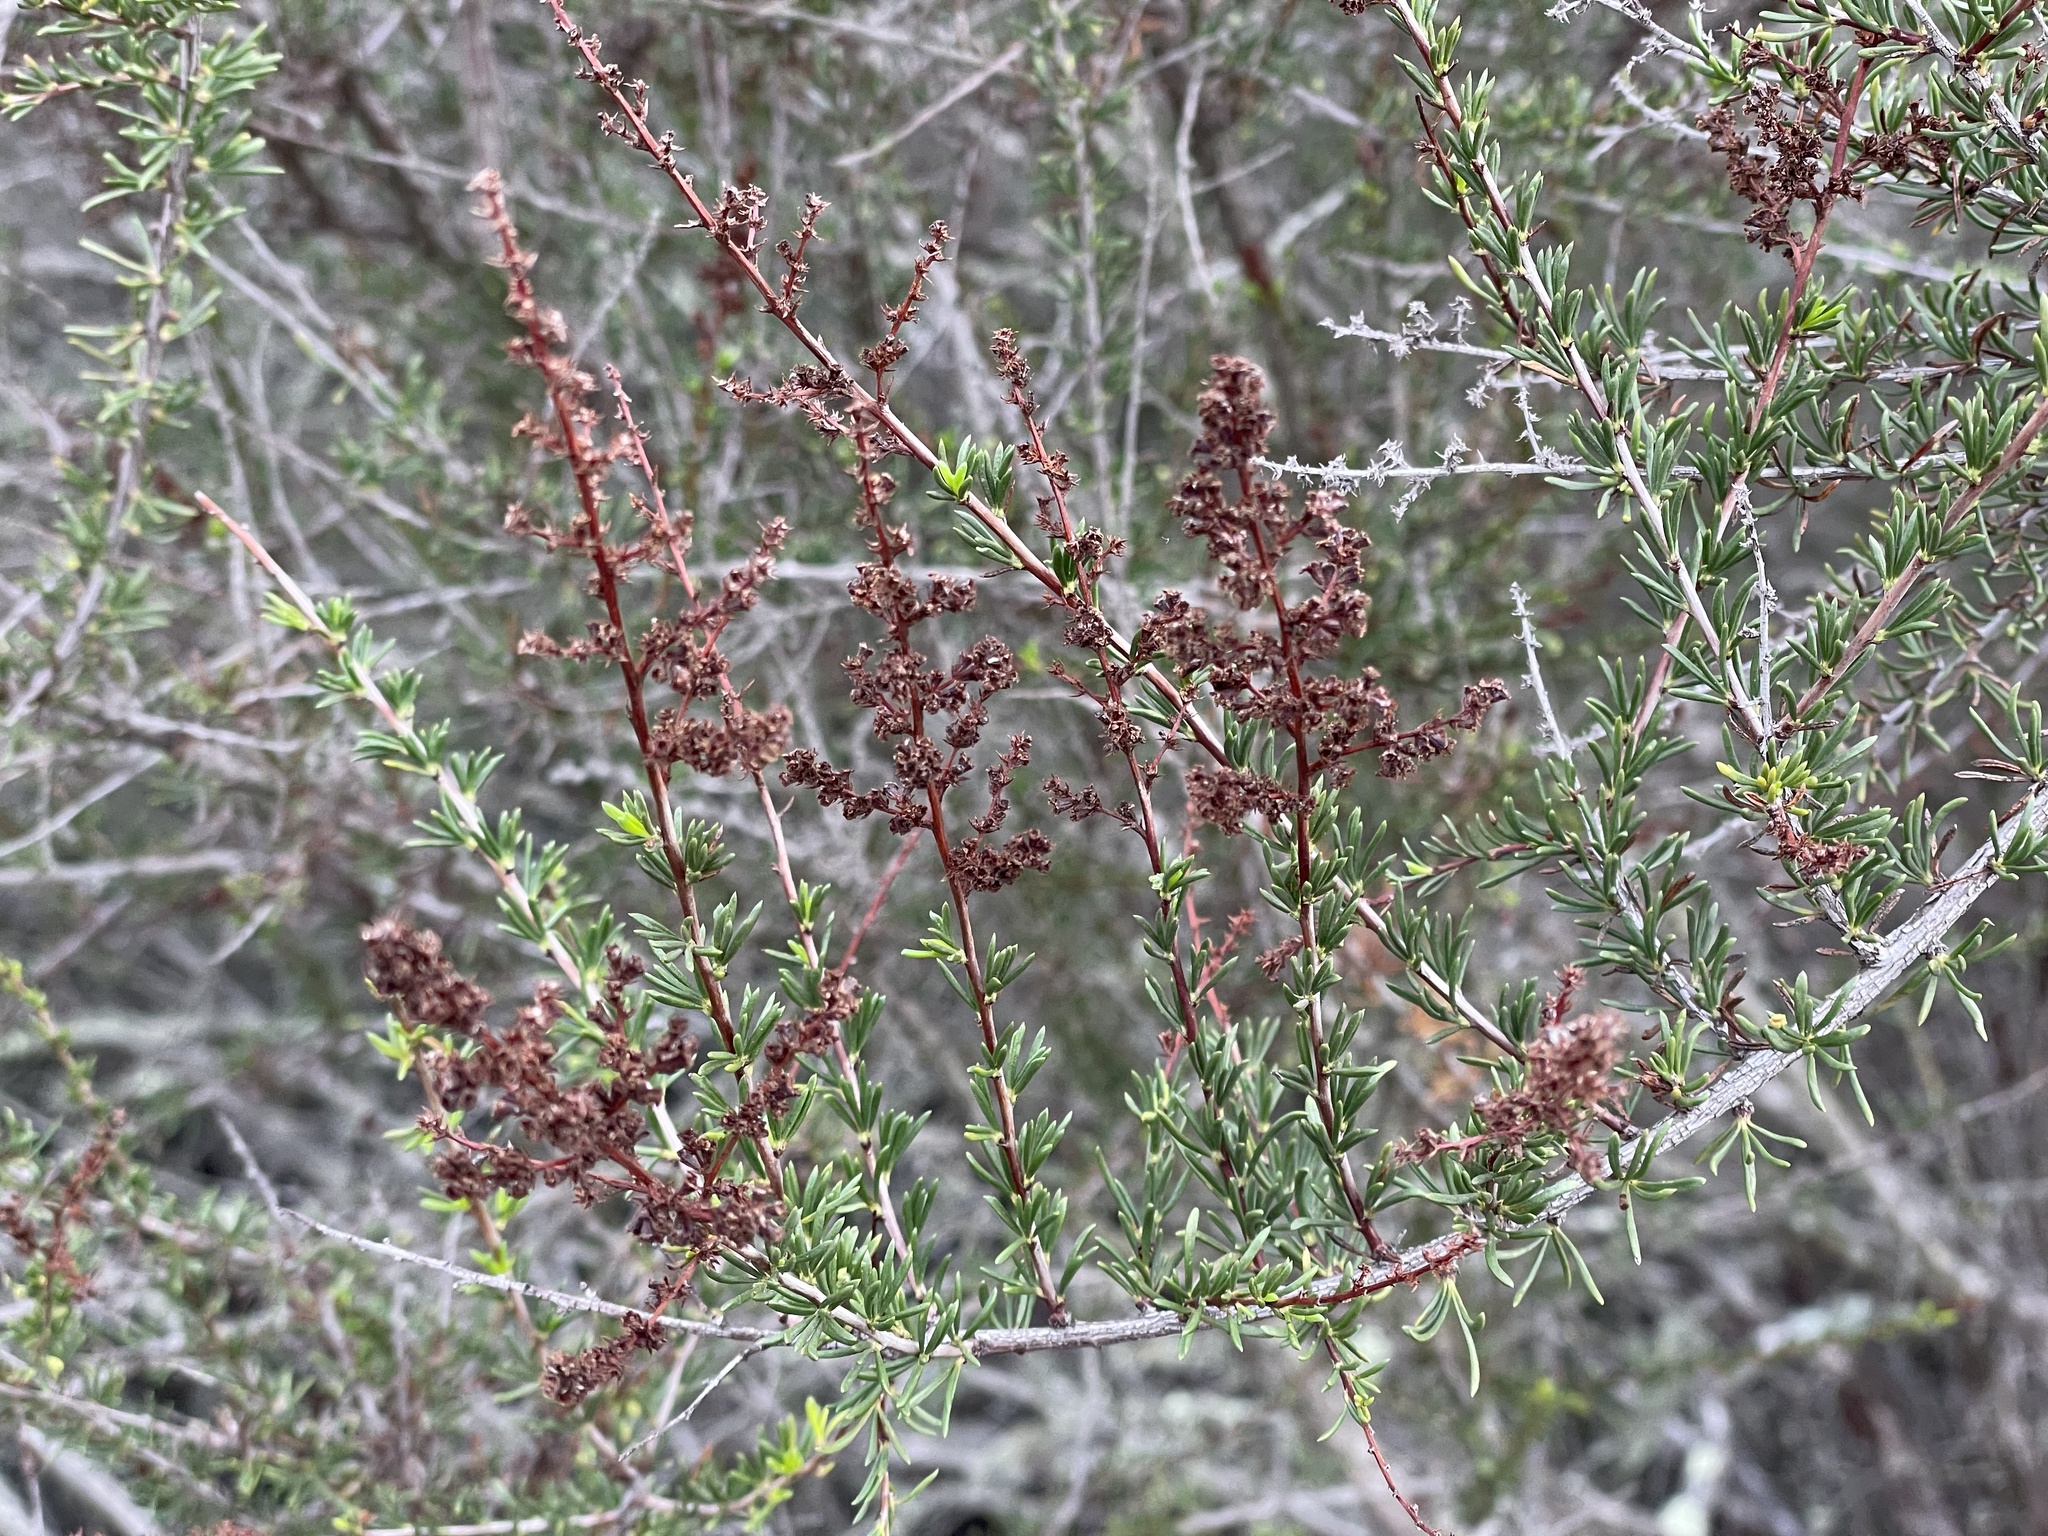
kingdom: Plantae
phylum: Tracheophyta
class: Magnoliopsida
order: Rosales
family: Rosaceae
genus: Adenostoma
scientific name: Adenostoma fasciculatum
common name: Chamise
